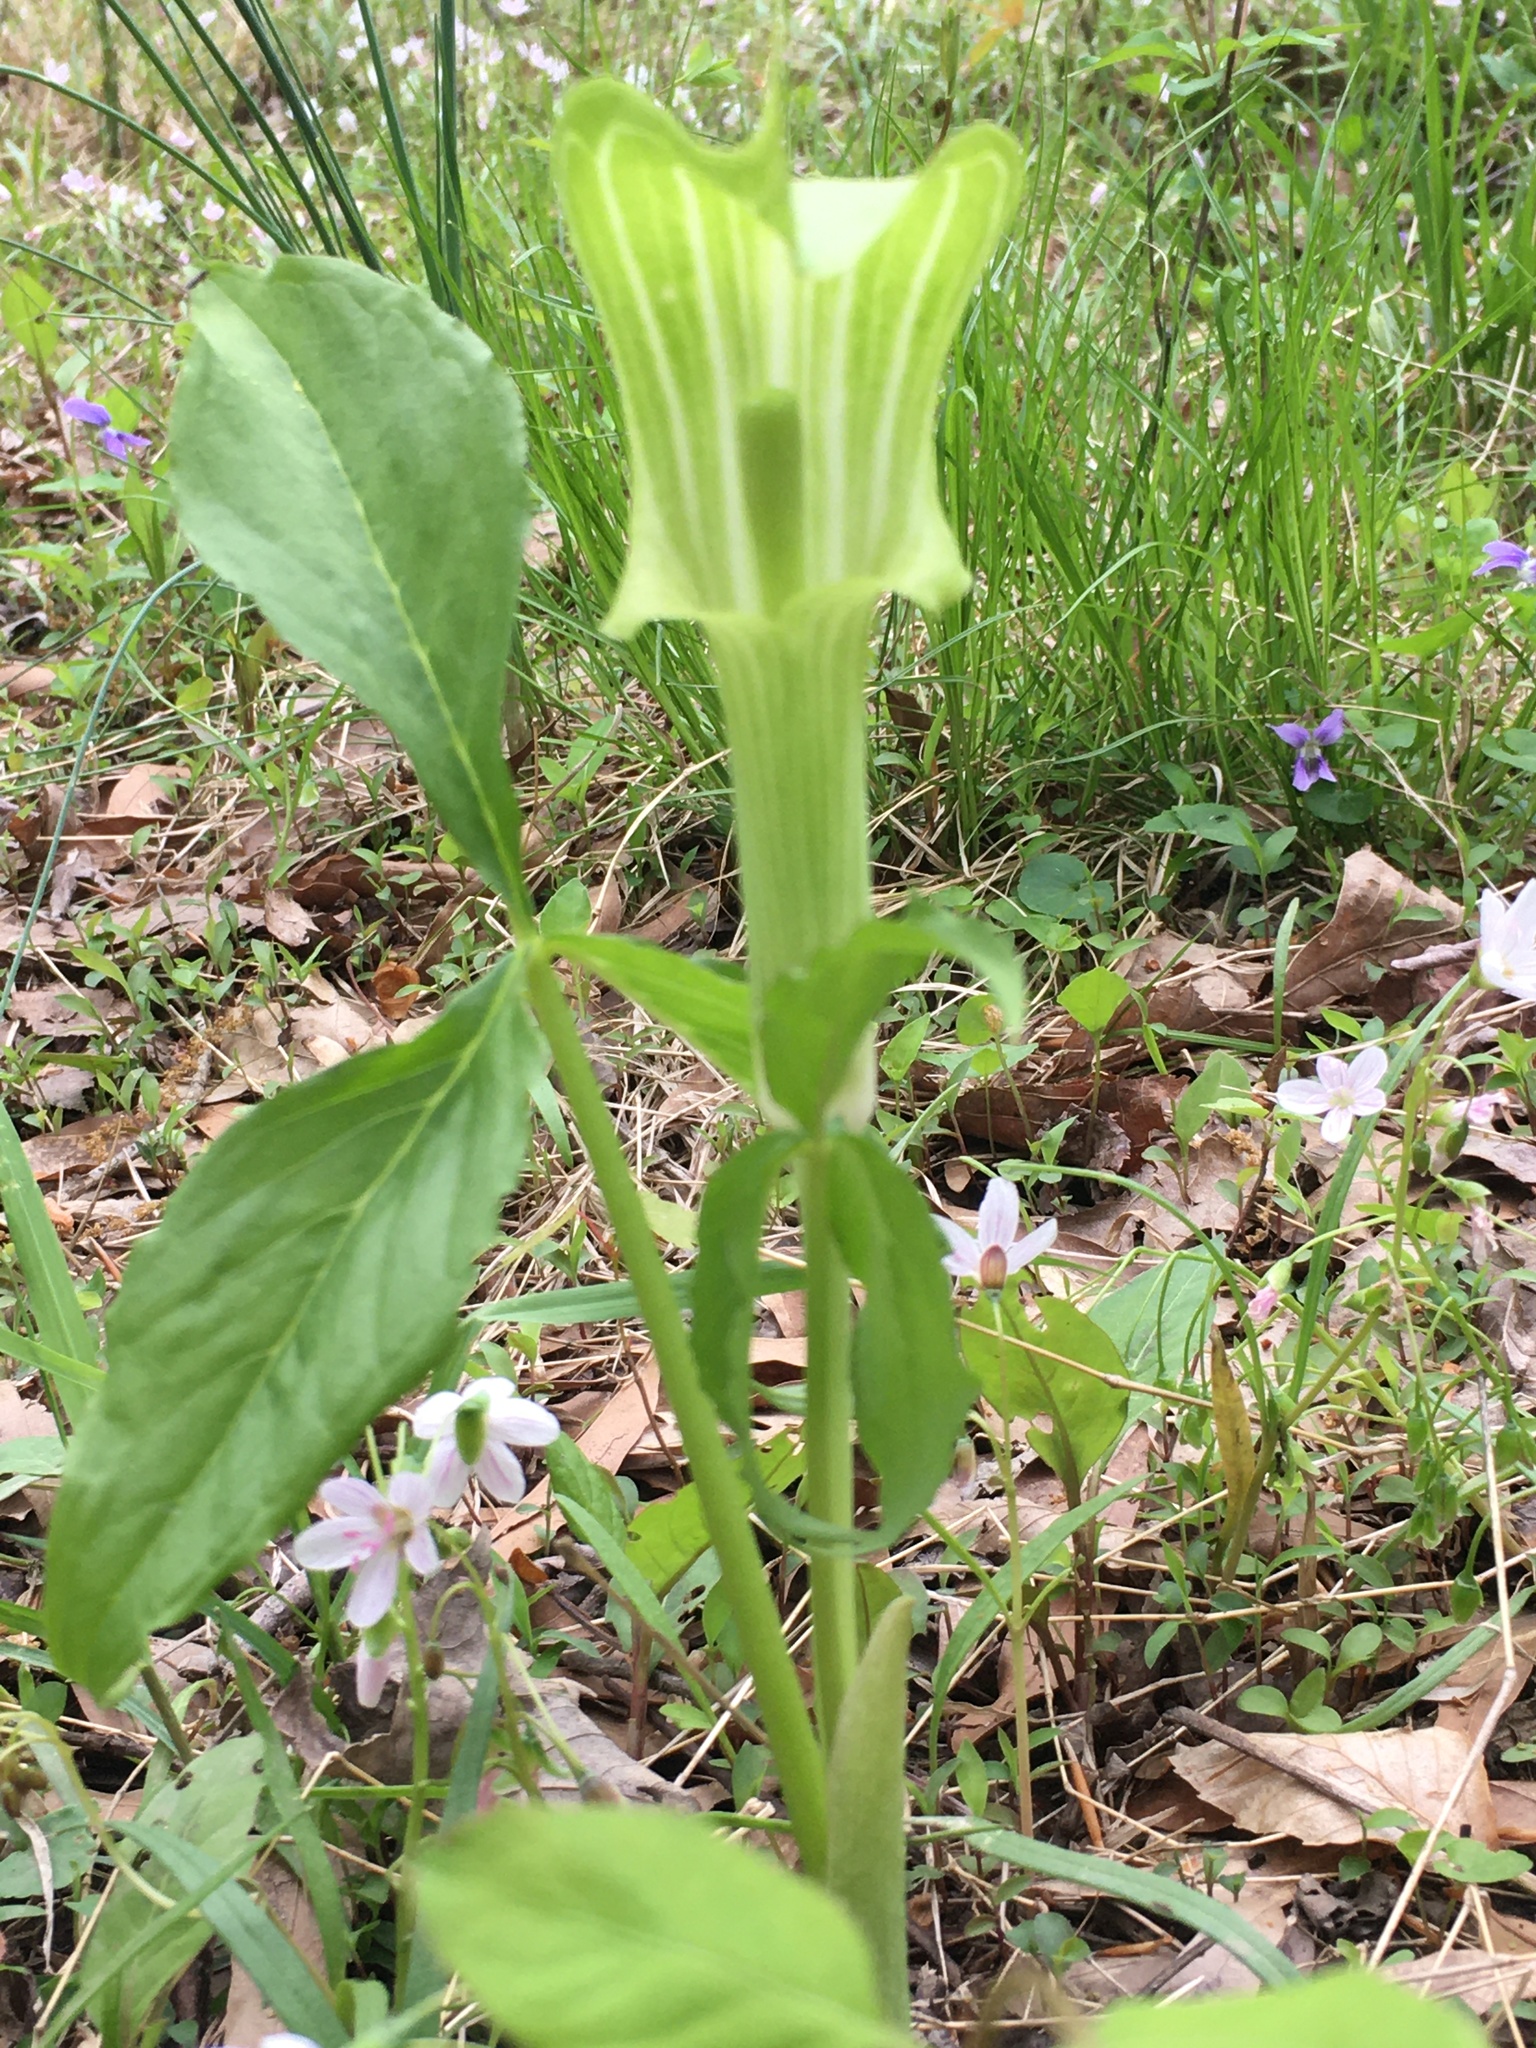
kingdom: Plantae
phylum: Tracheophyta
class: Liliopsida
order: Alismatales
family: Araceae
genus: Arisaema
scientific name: Arisaema triphyllum
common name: Jack-in-the-pulpit
